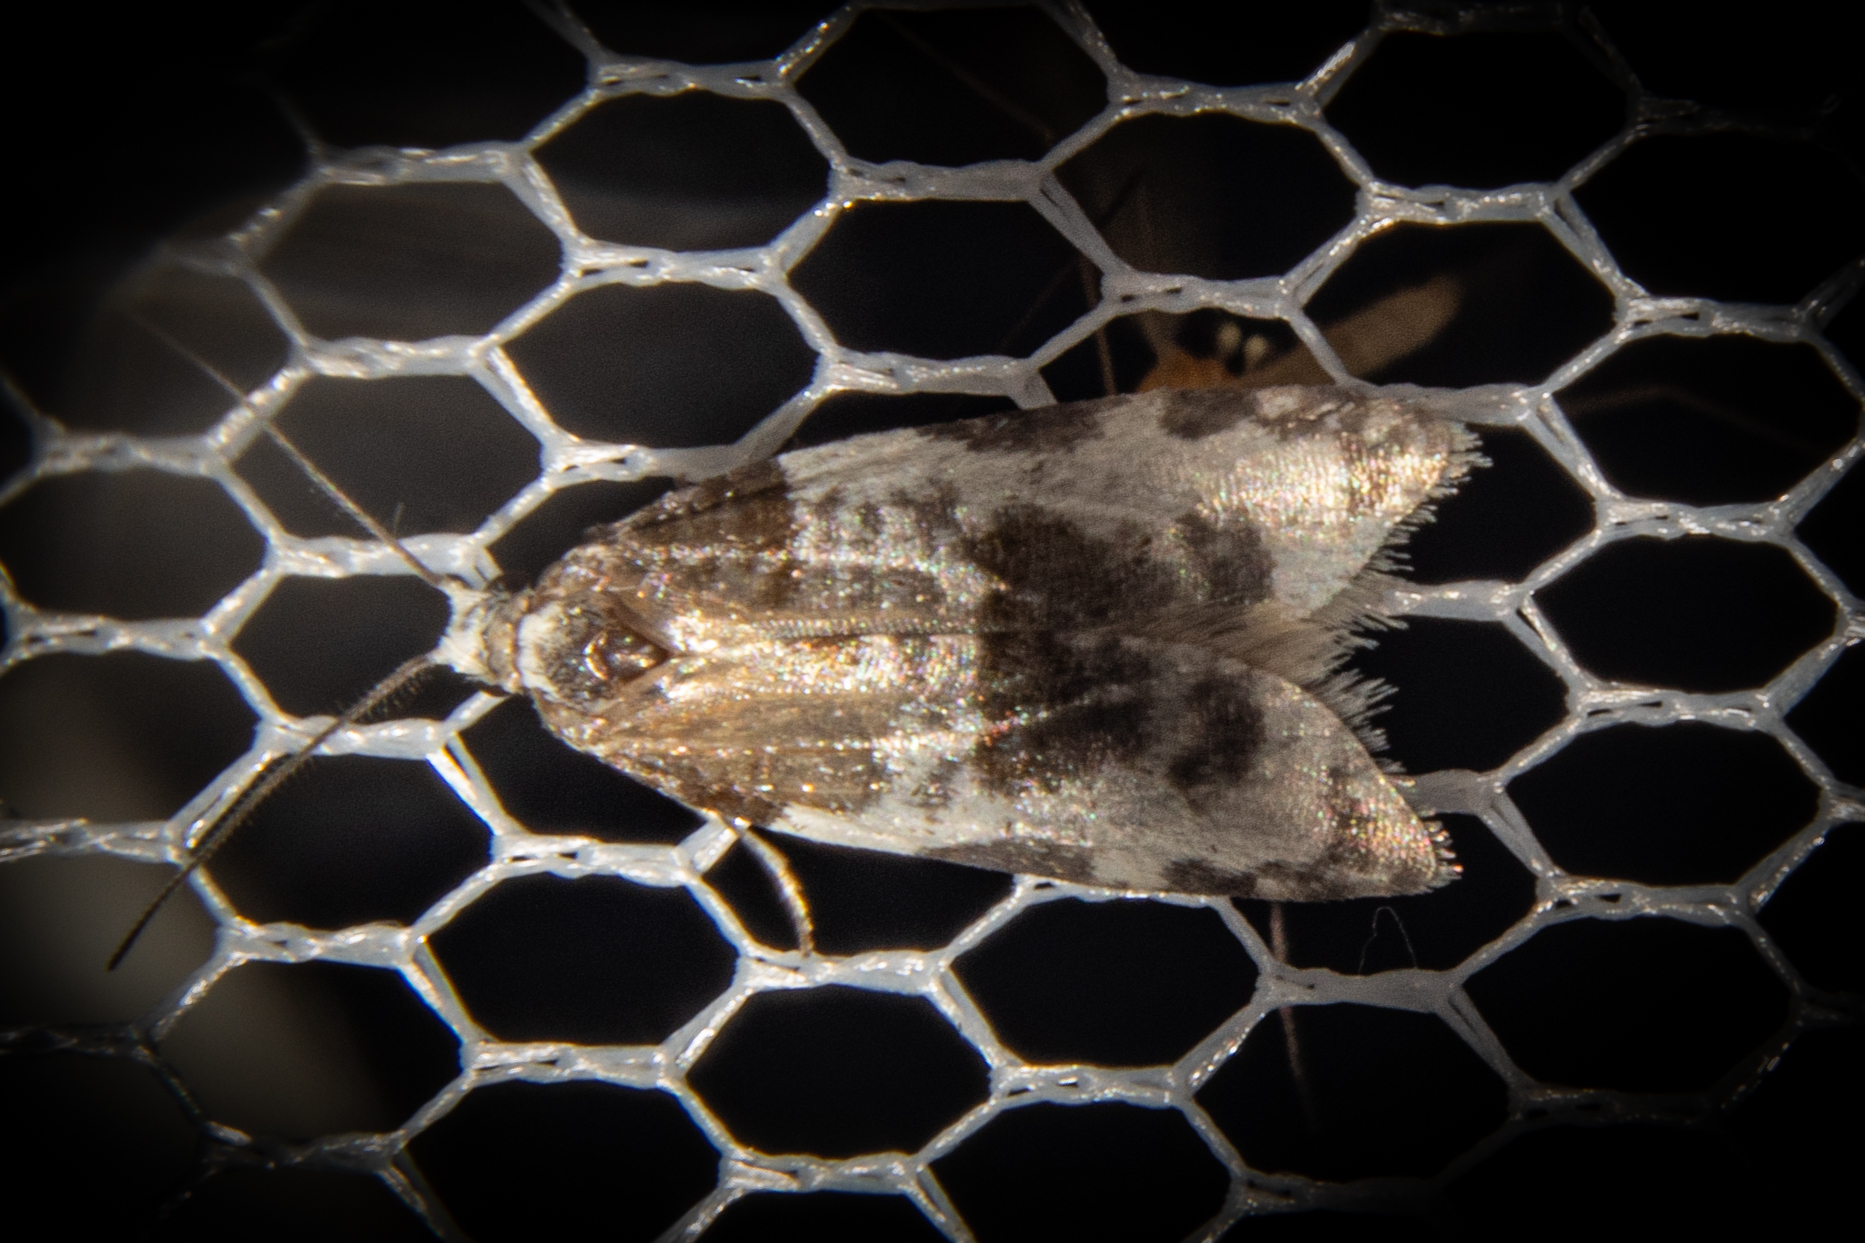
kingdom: Animalia
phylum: Arthropoda
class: Insecta
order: Lepidoptera
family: Tortricidae
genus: Prothelymna
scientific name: Prothelymna niphostrota
